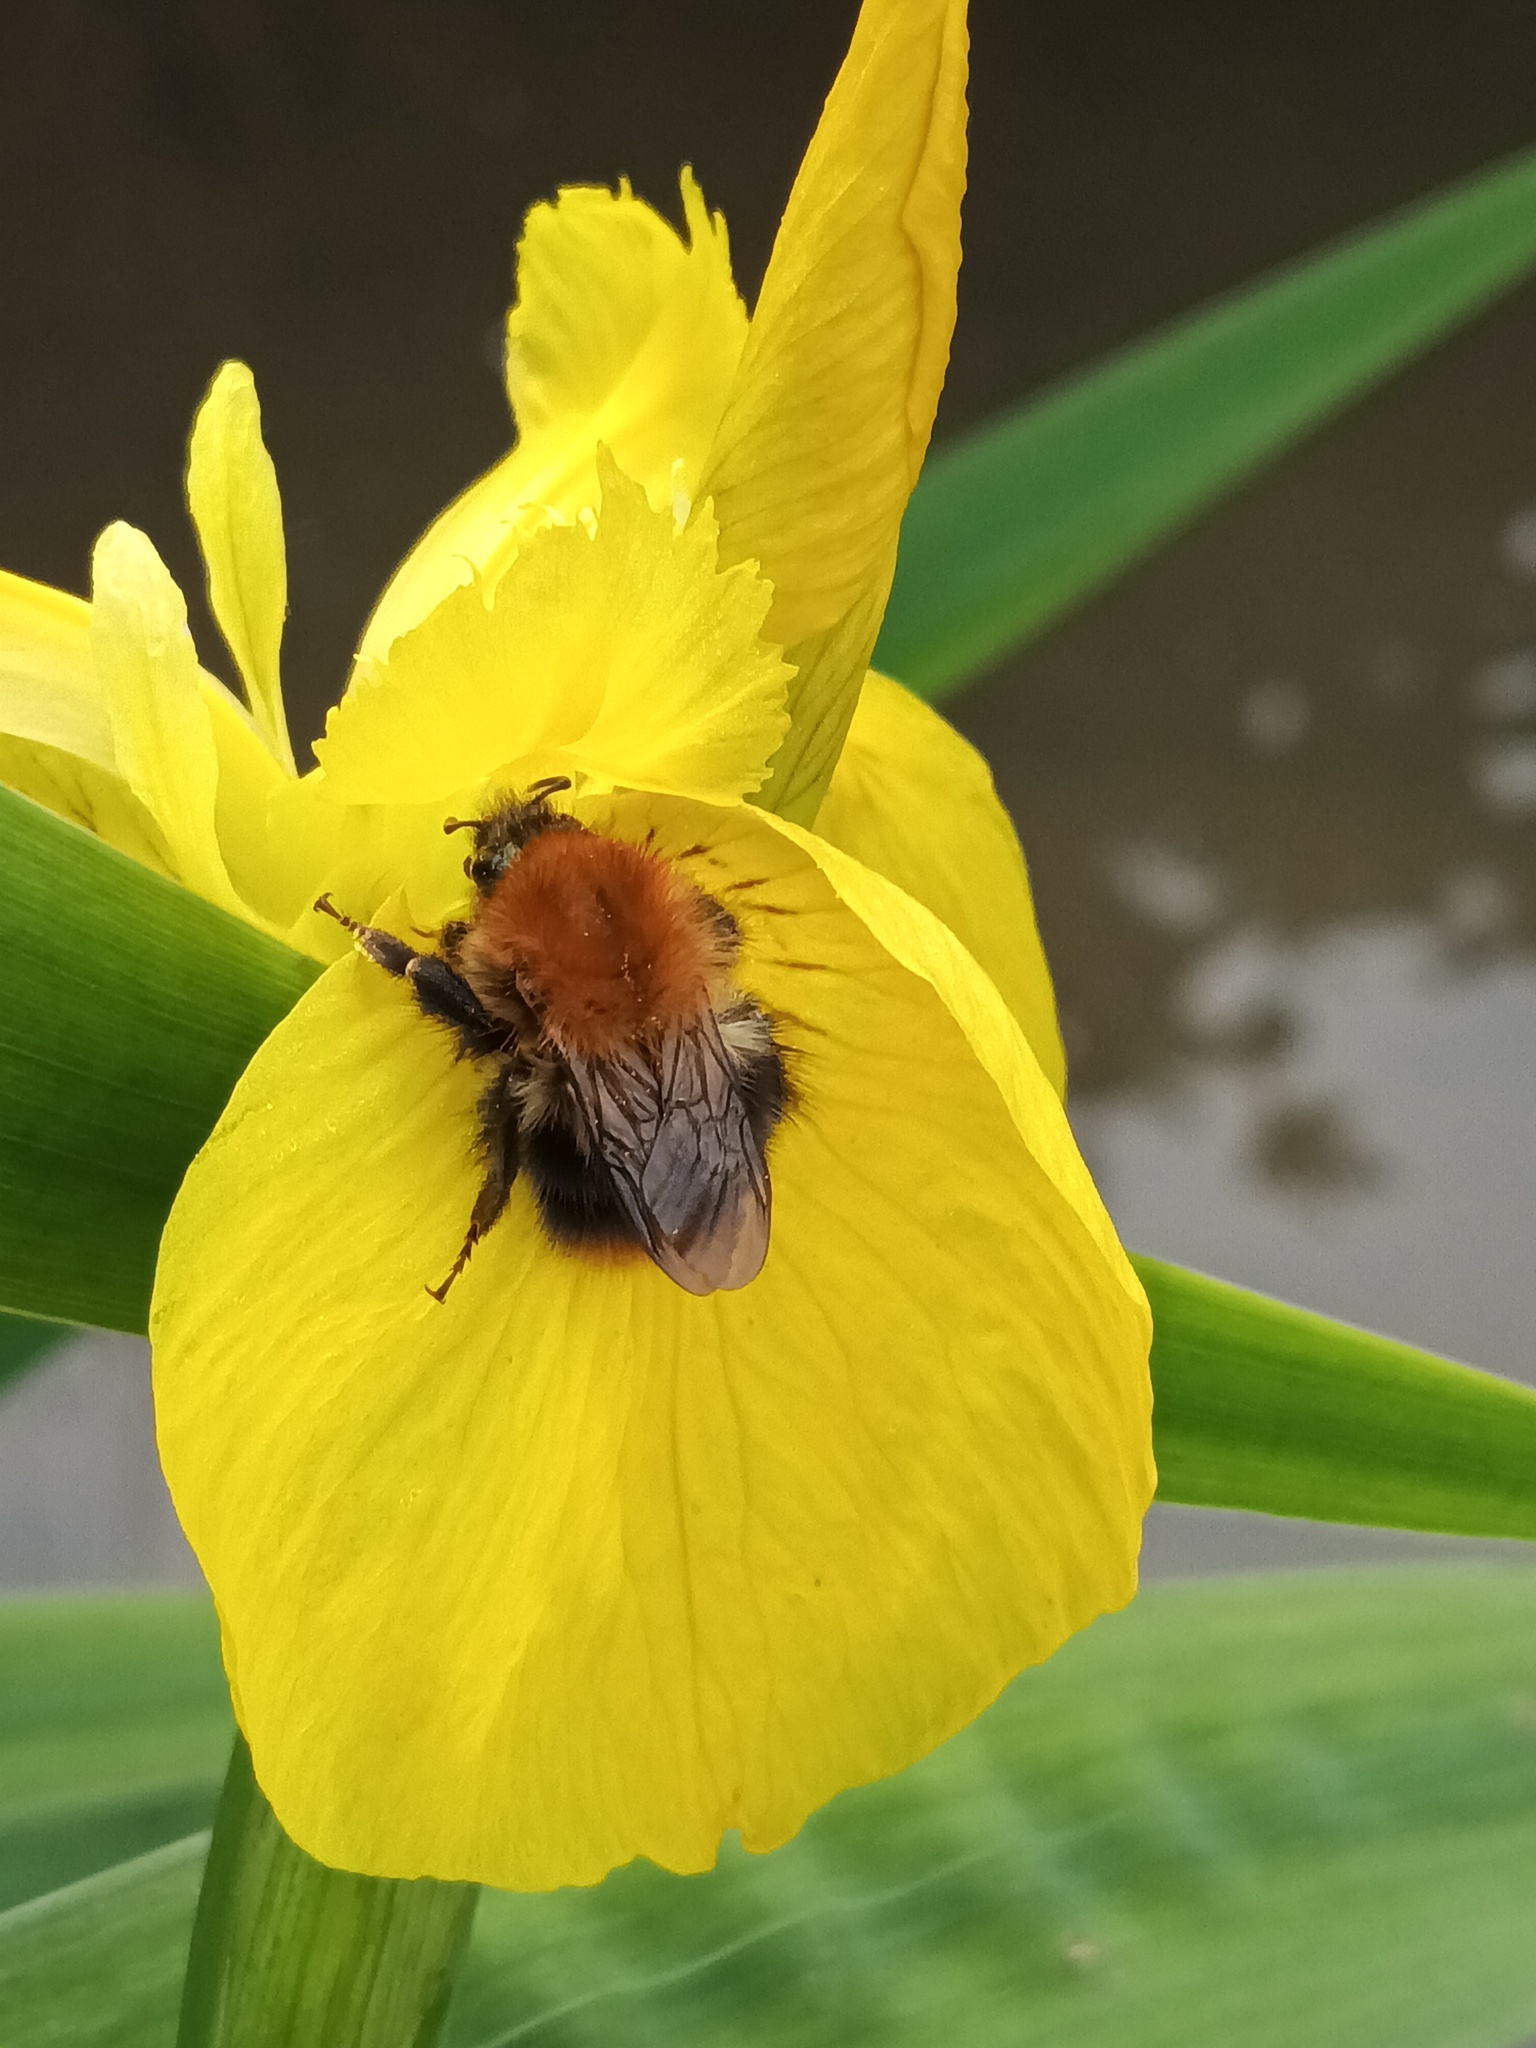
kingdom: Animalia
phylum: Arthropoda
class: Insecta
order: Hymenoptera
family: Apidae
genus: Bombus
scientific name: Bombus pascuorum
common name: Common carder bee
